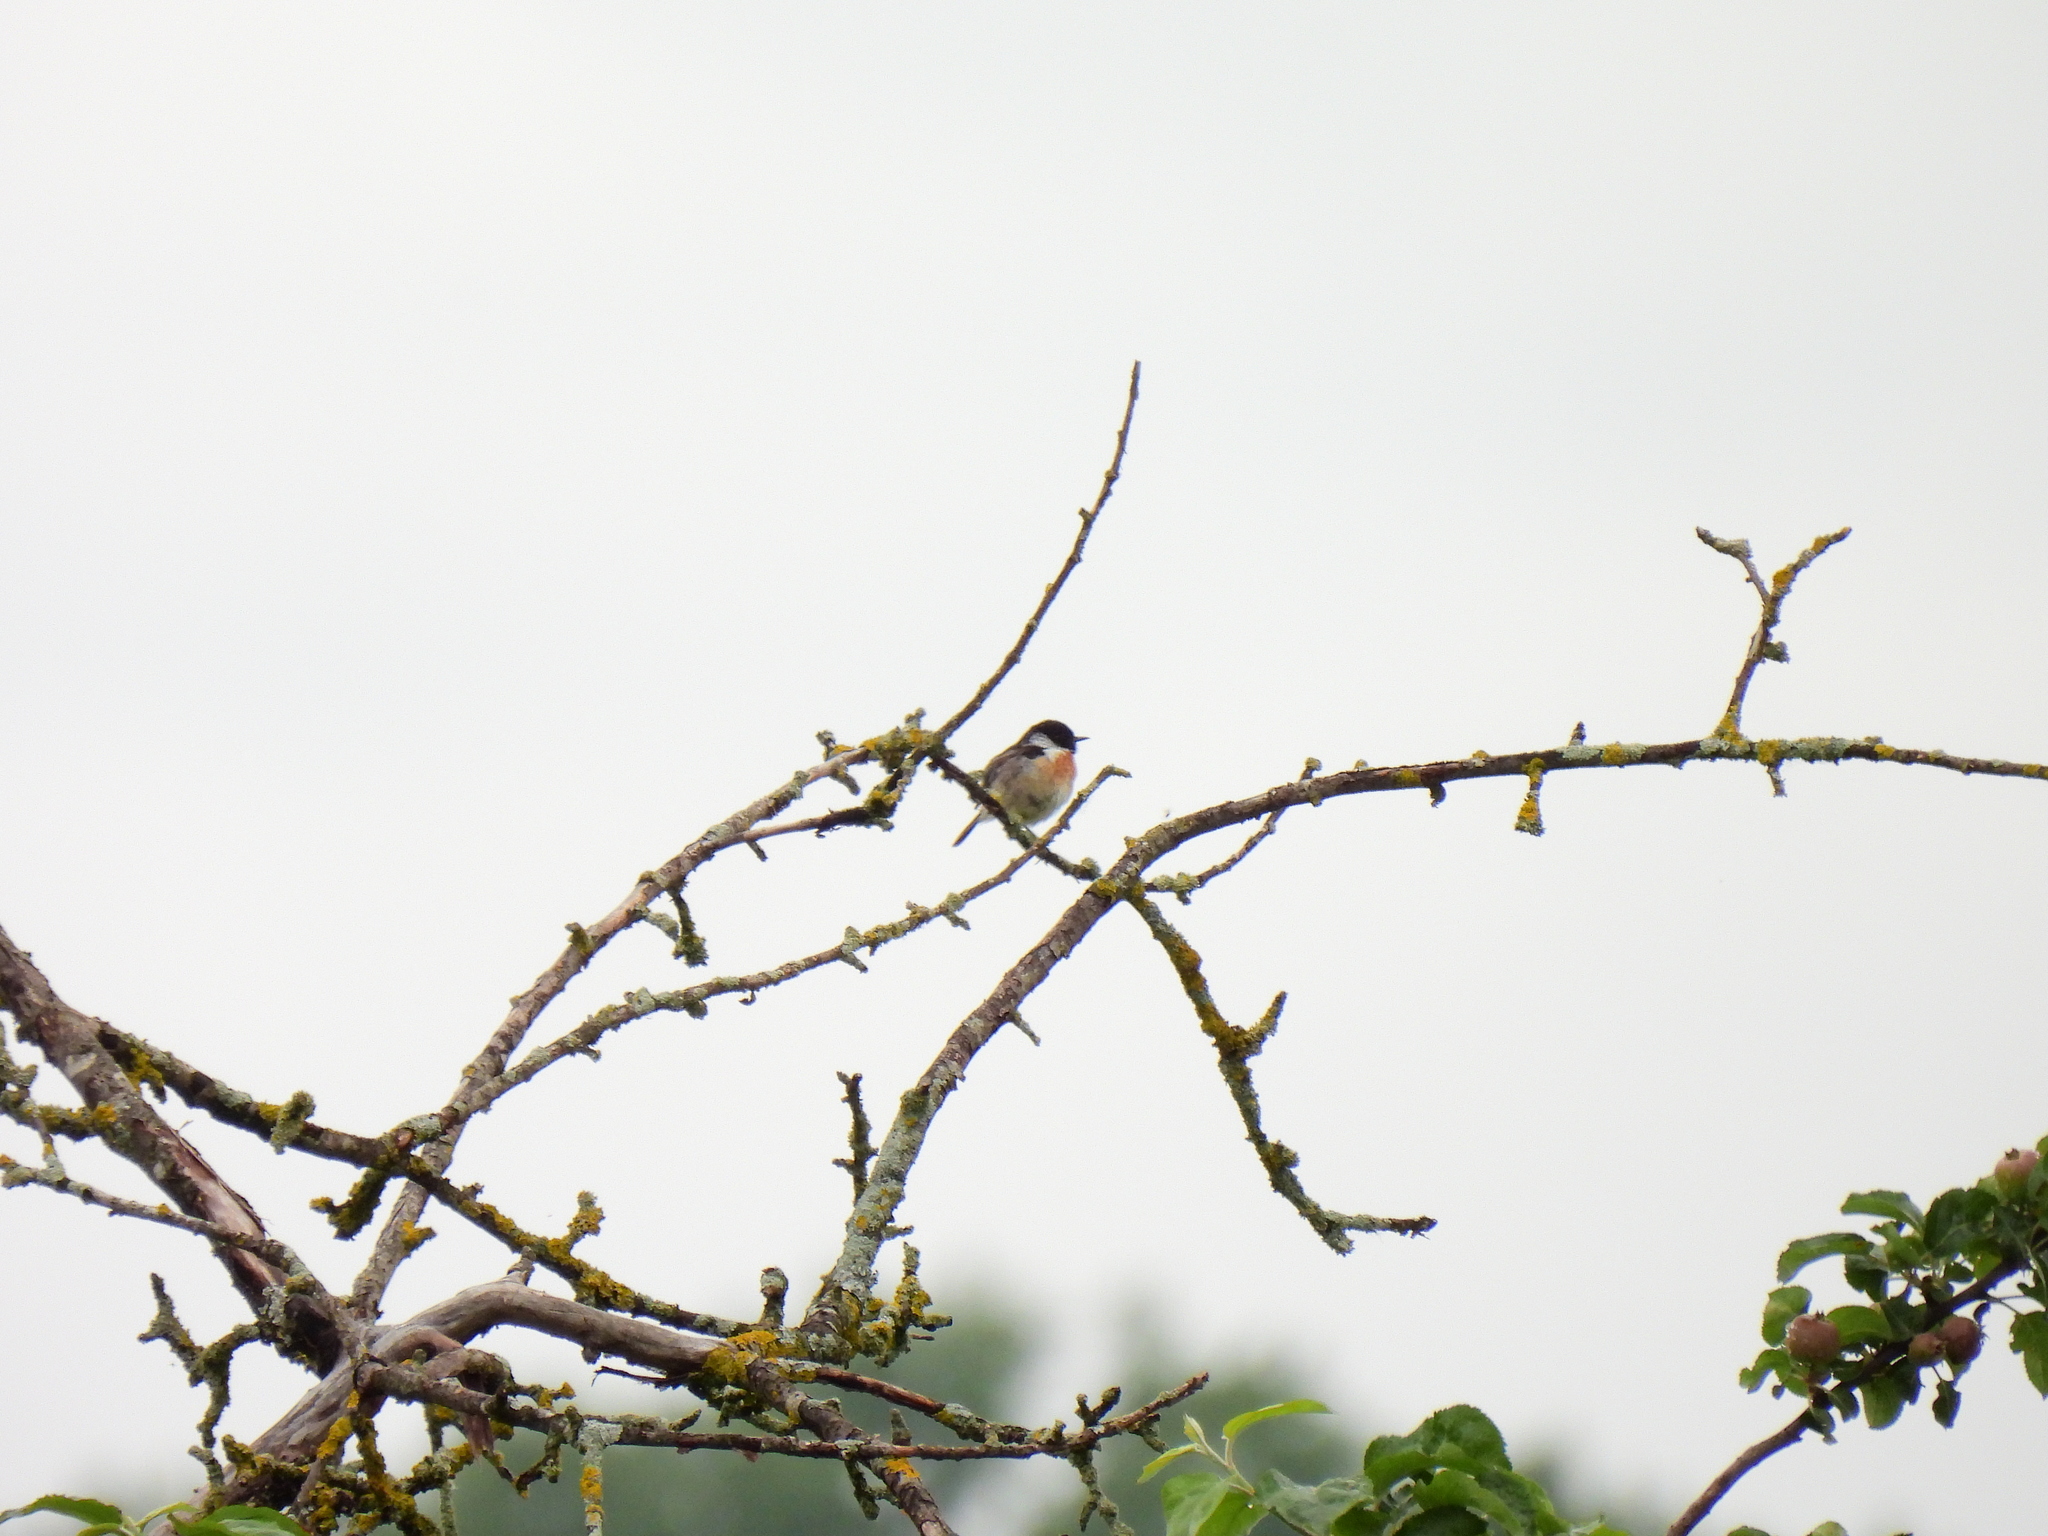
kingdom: Animalia
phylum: Chordata
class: Aves
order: Passeriformes
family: Muscicapidae
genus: Saxicola
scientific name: Saxicola rubicola
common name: European stonechat
